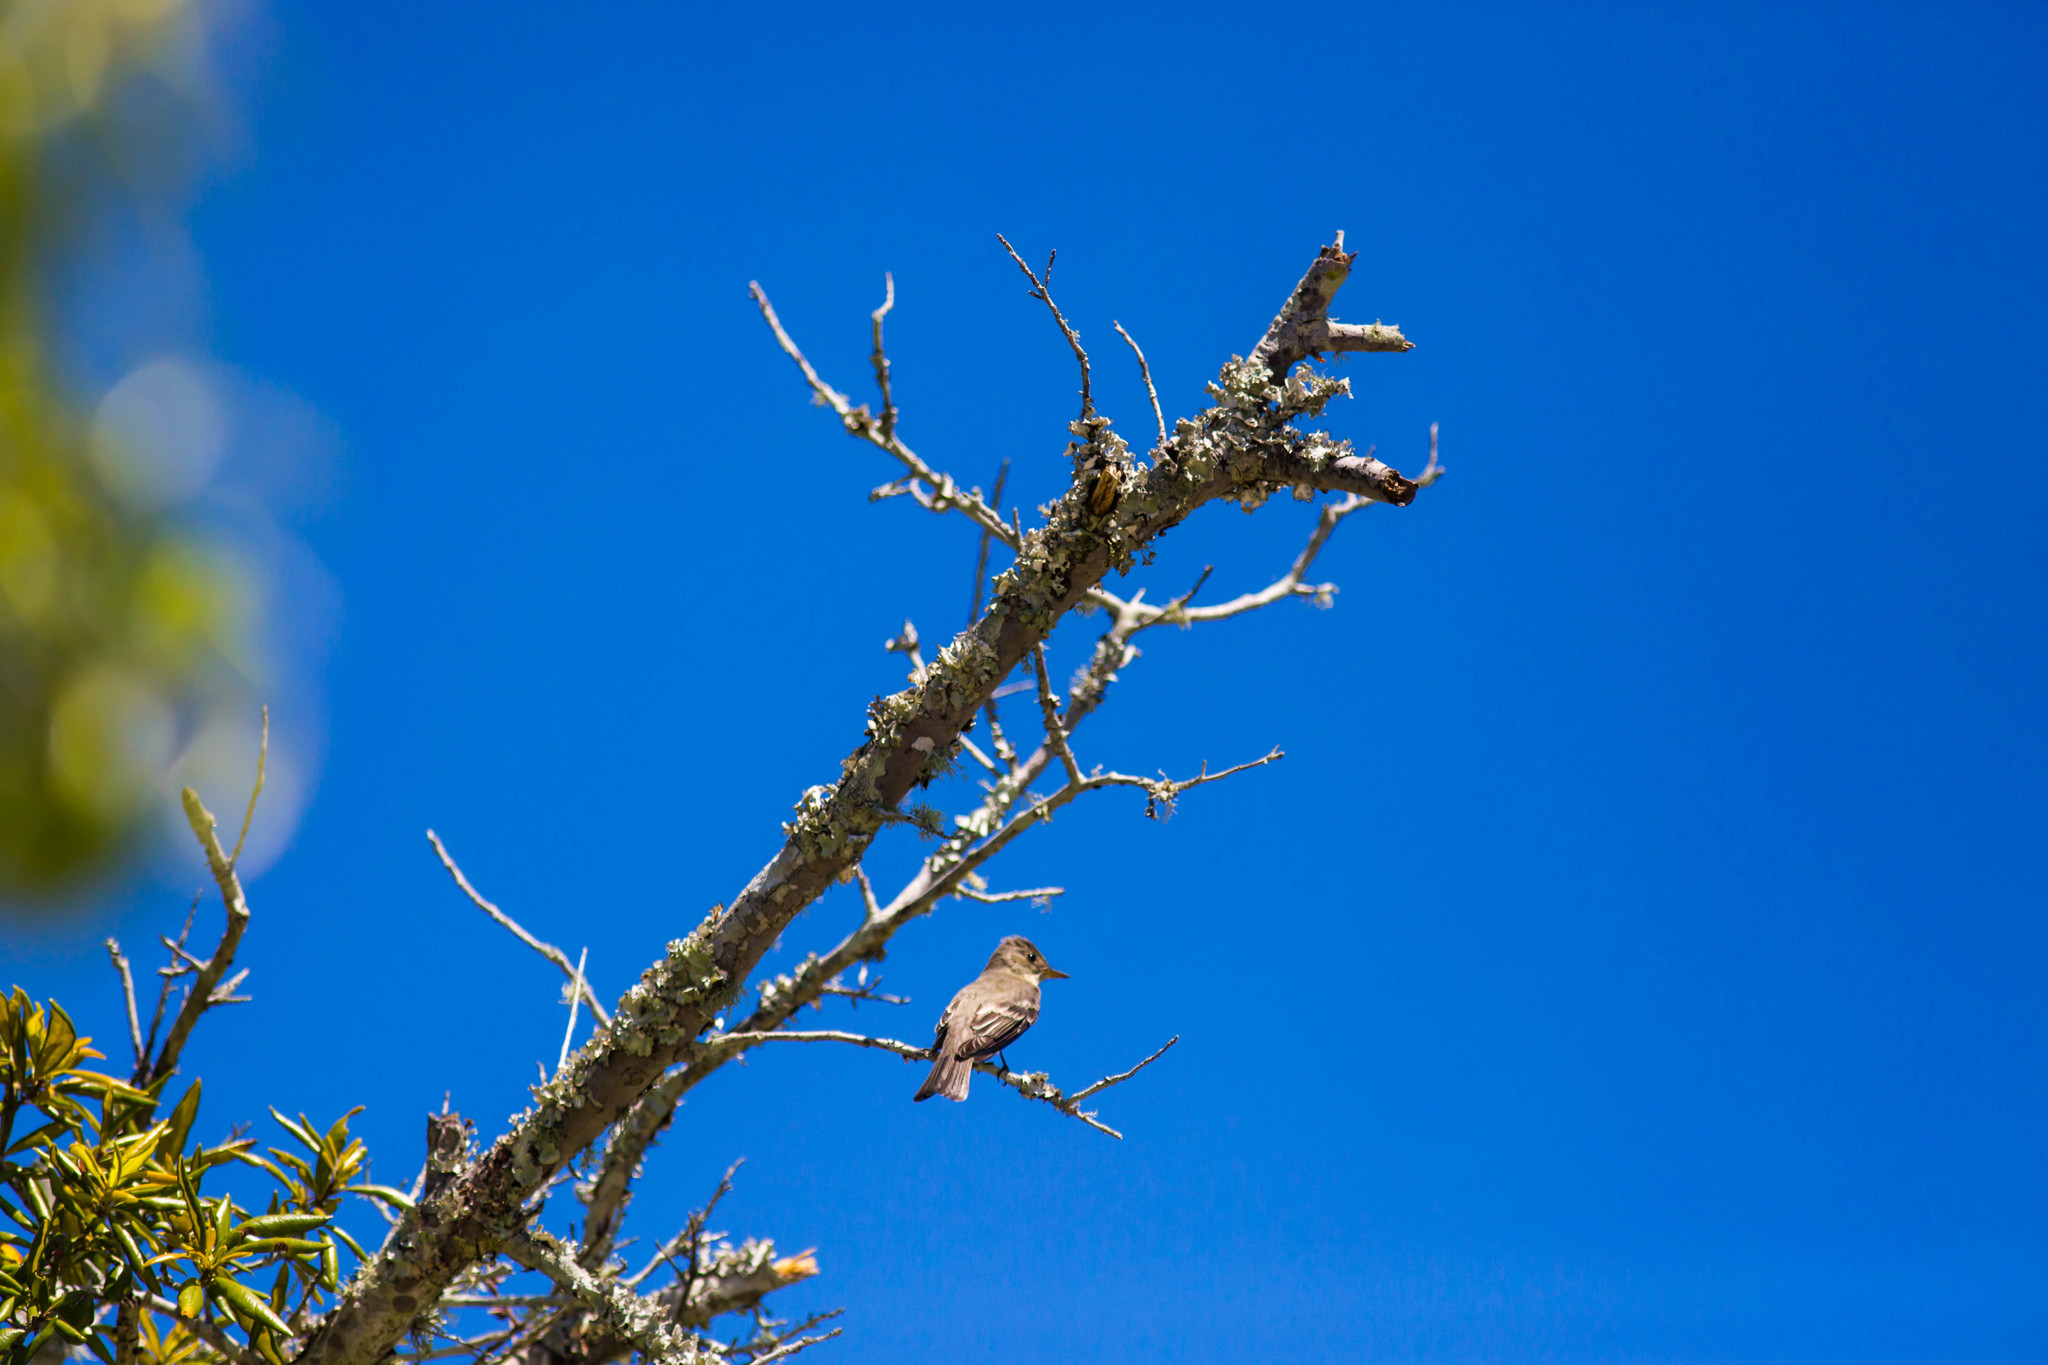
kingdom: Animalia
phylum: Chordata
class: Aves
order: Passeriformes
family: Tyrannidae
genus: Contopus
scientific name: Contopus virens
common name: Eastern wood-pewee
